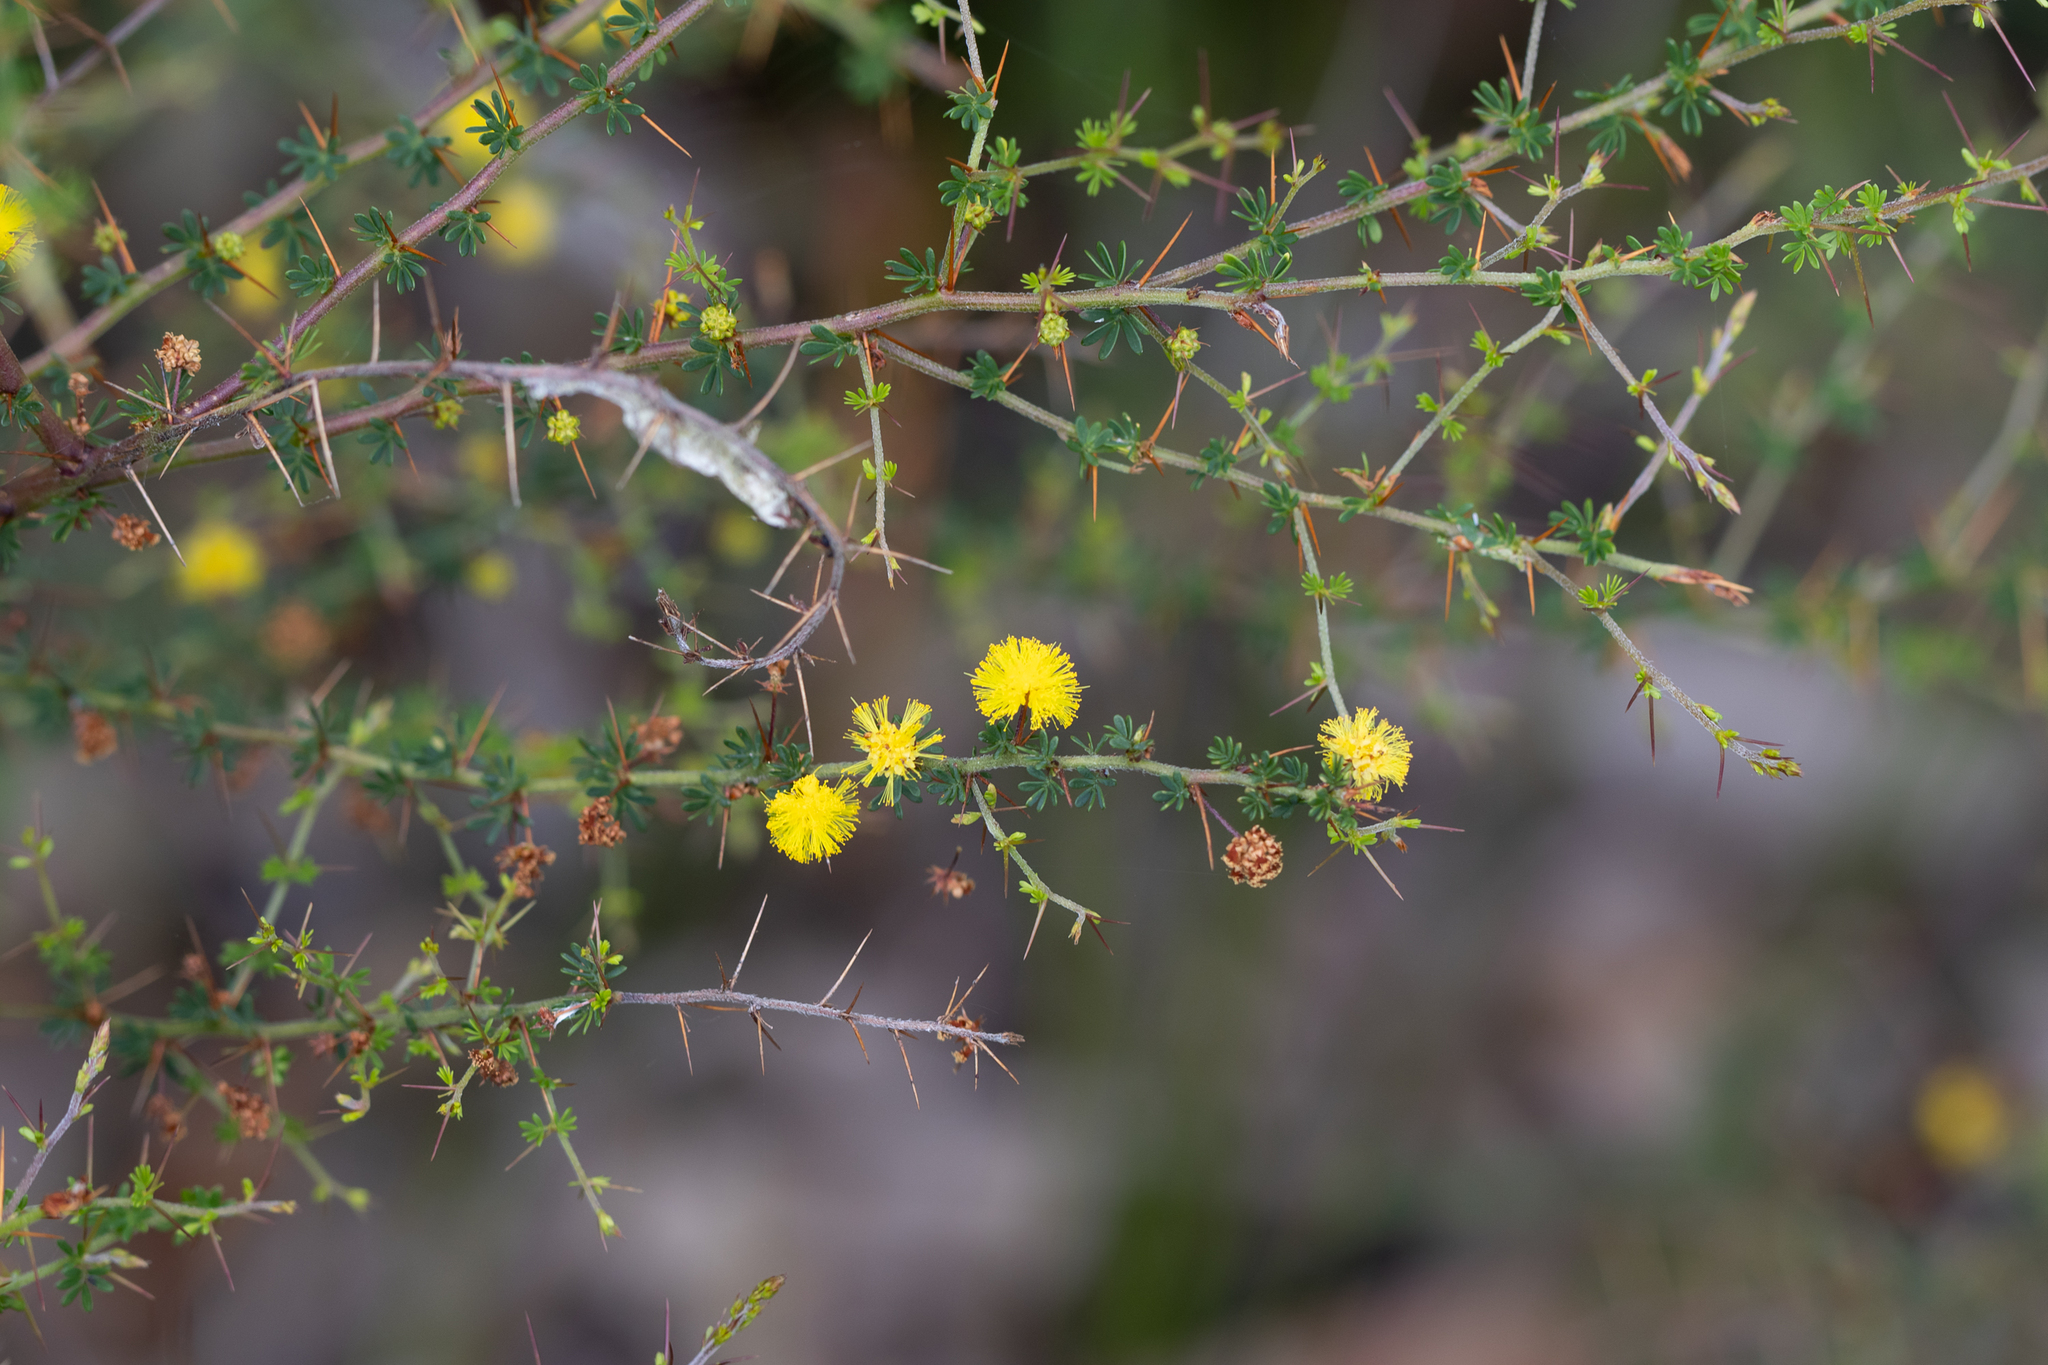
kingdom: Plantae
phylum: Tracheophyta
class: Magnoliopsida
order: Fabales
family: Fabaceae
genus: Acacia
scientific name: Acacia pulchella
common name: Prickly moses
